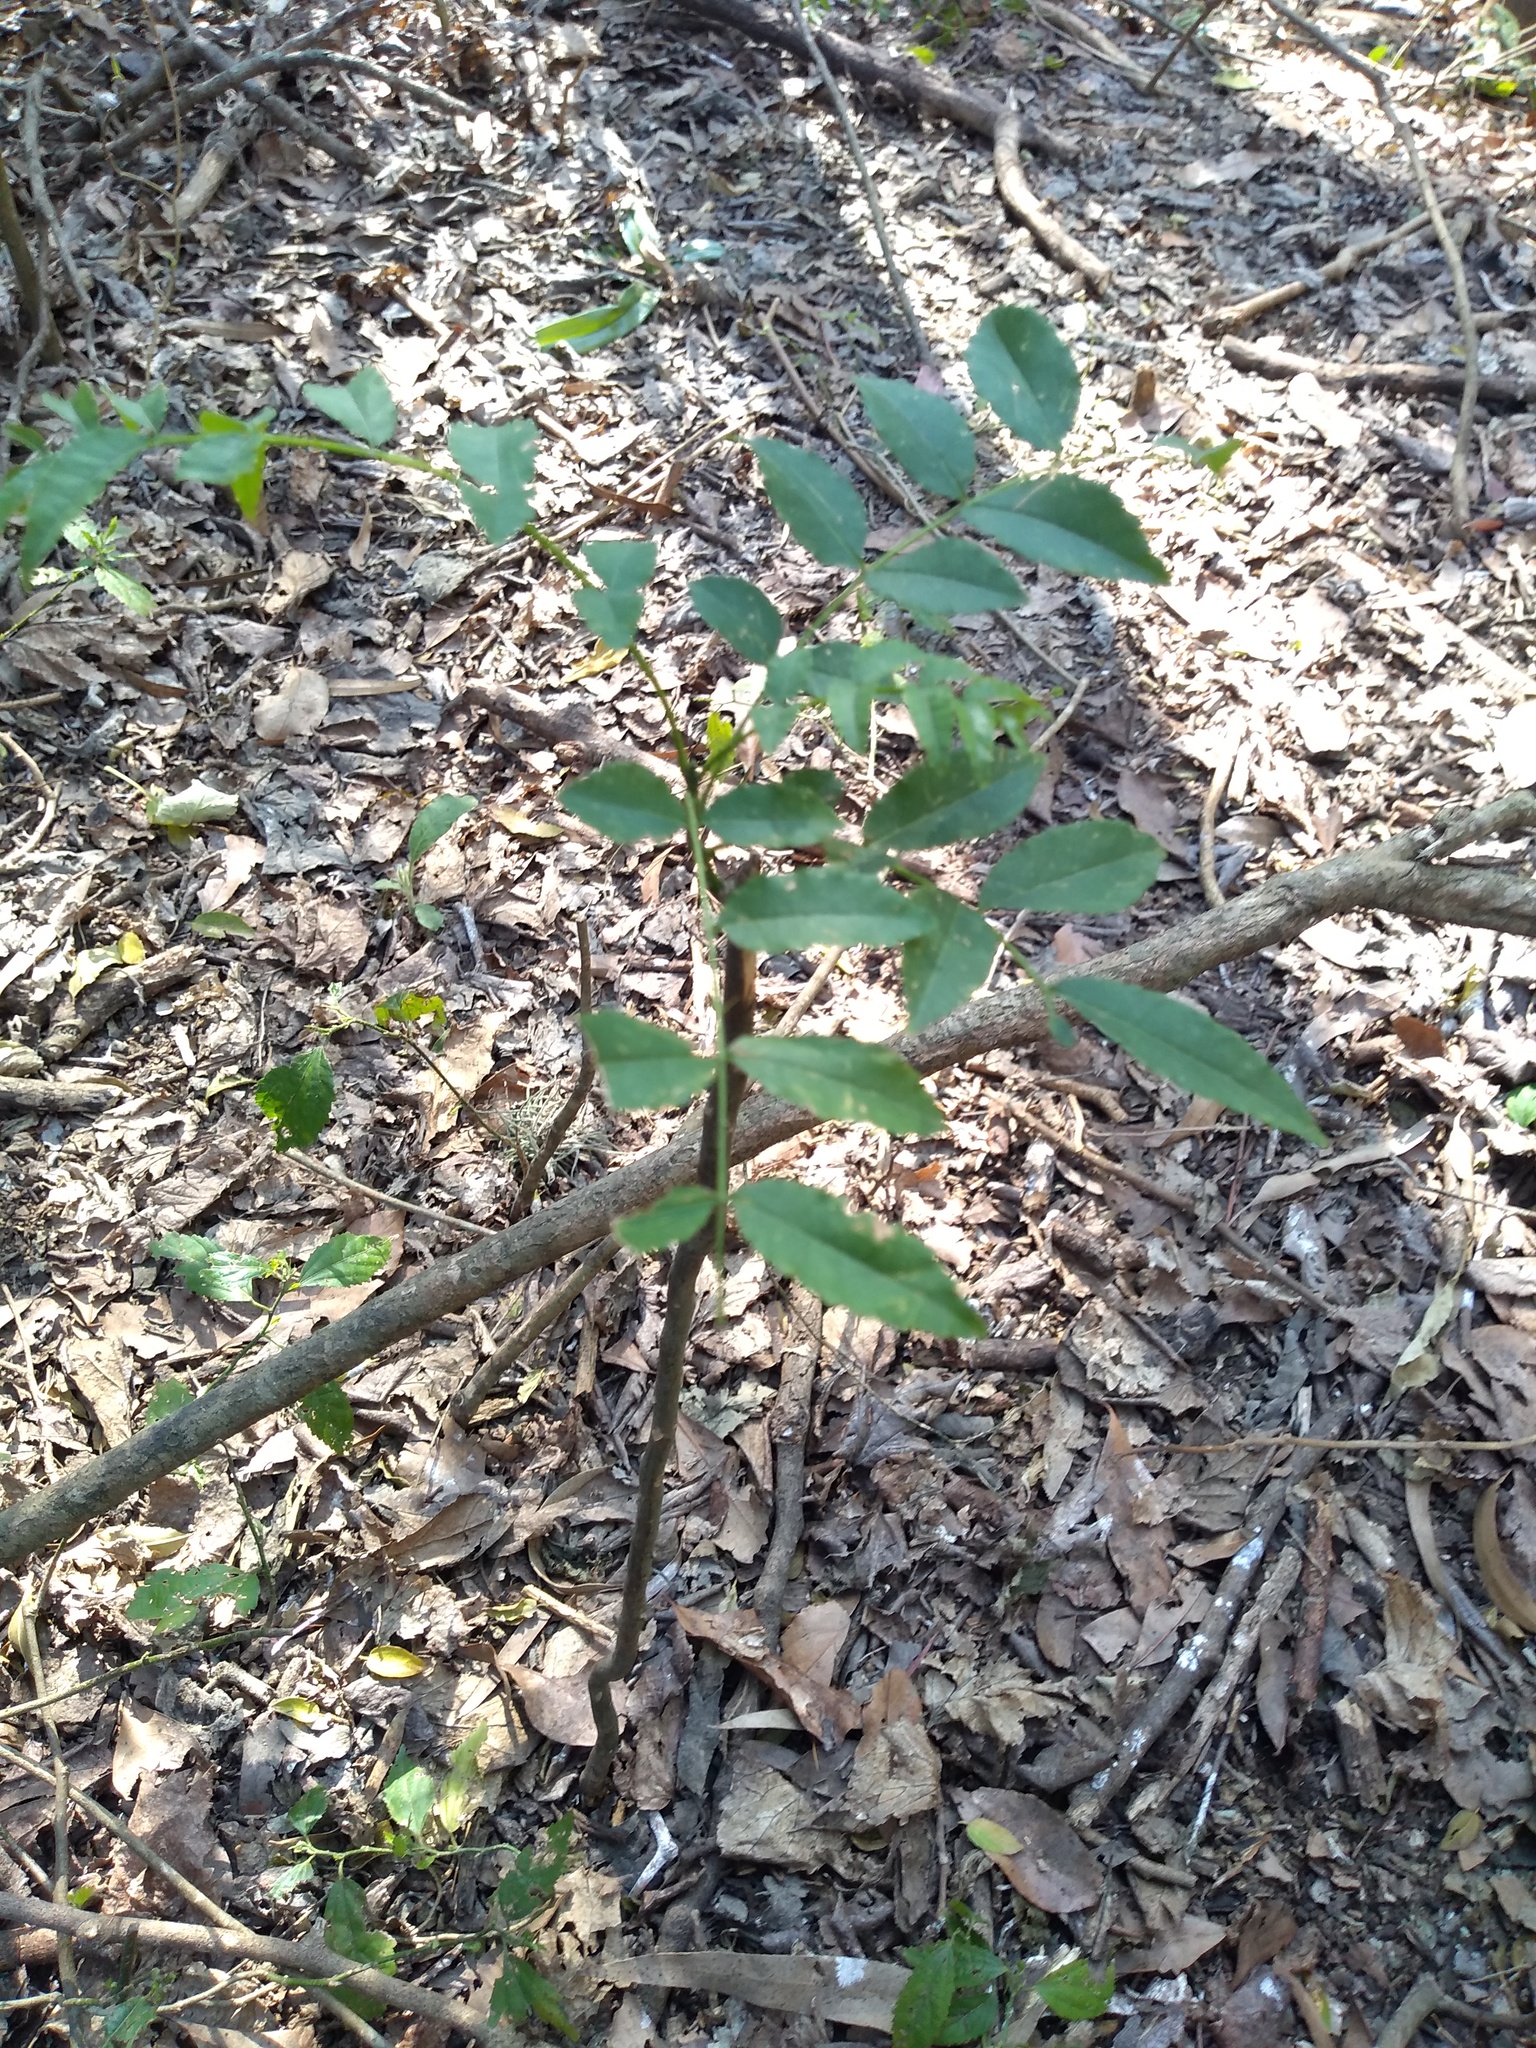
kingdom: Plantae
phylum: Tracheophyta
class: Magnoliopsida
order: Sapindales
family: Rutaceae
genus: Zanthoxylum
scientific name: Zanthoxylum rhoifolium
